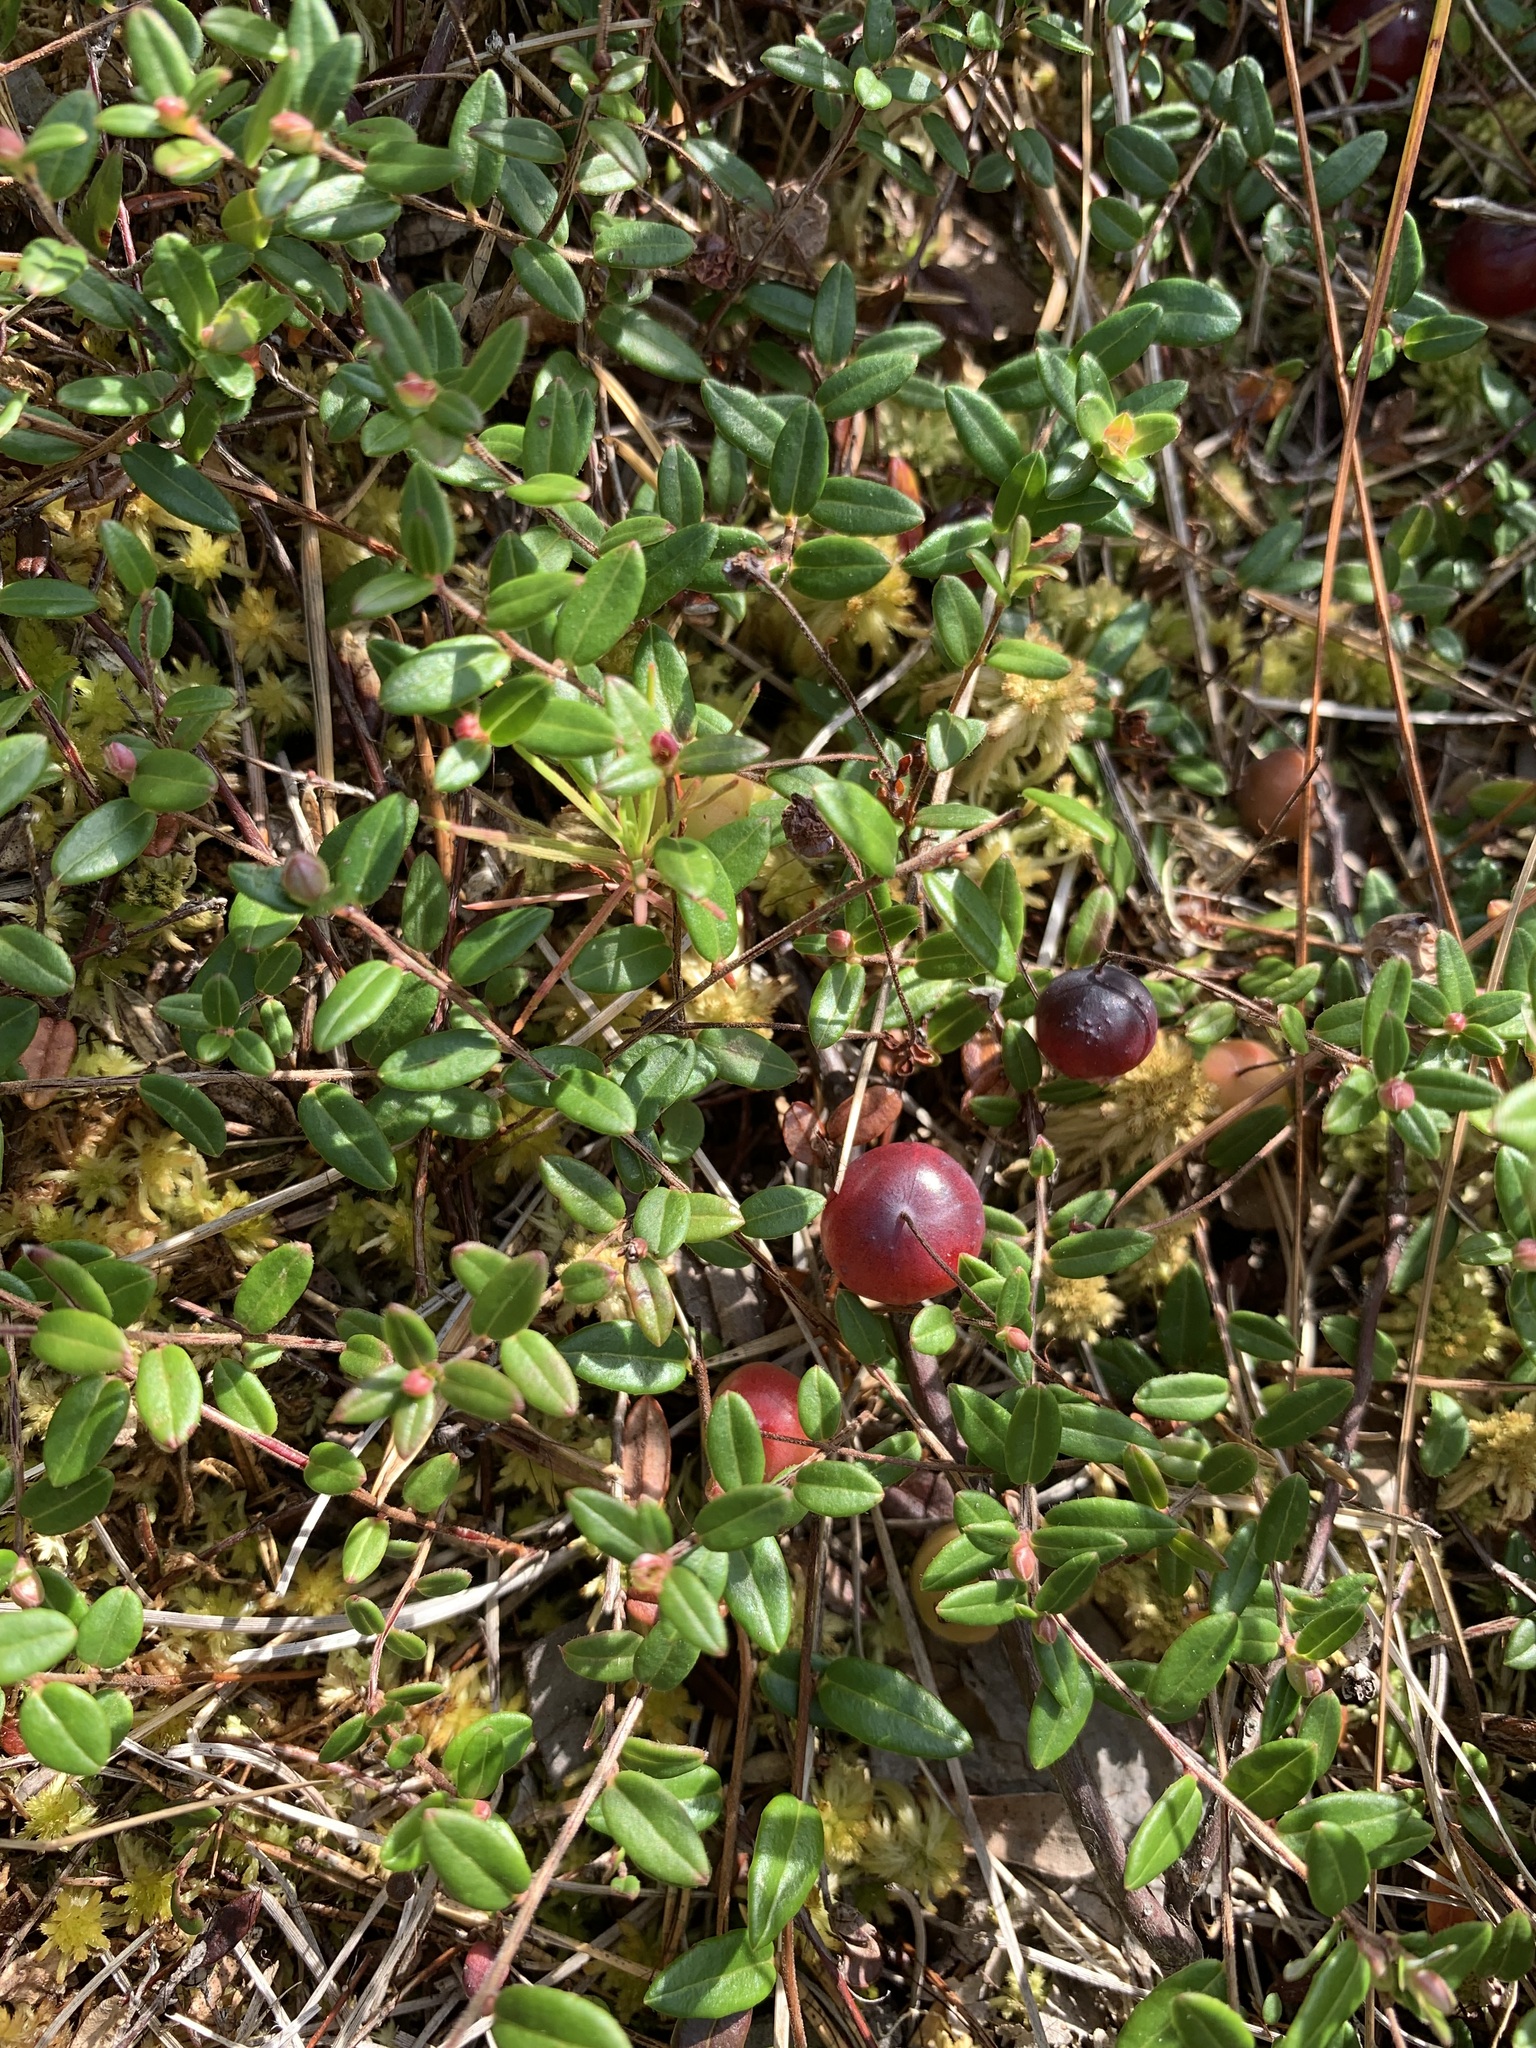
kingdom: Plantae
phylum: Tracheophyta
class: Magnoliopsida
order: Ericales
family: Ericaceae
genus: Vaccinium
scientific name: Vaccinium oxycoccos
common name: Cranberry
